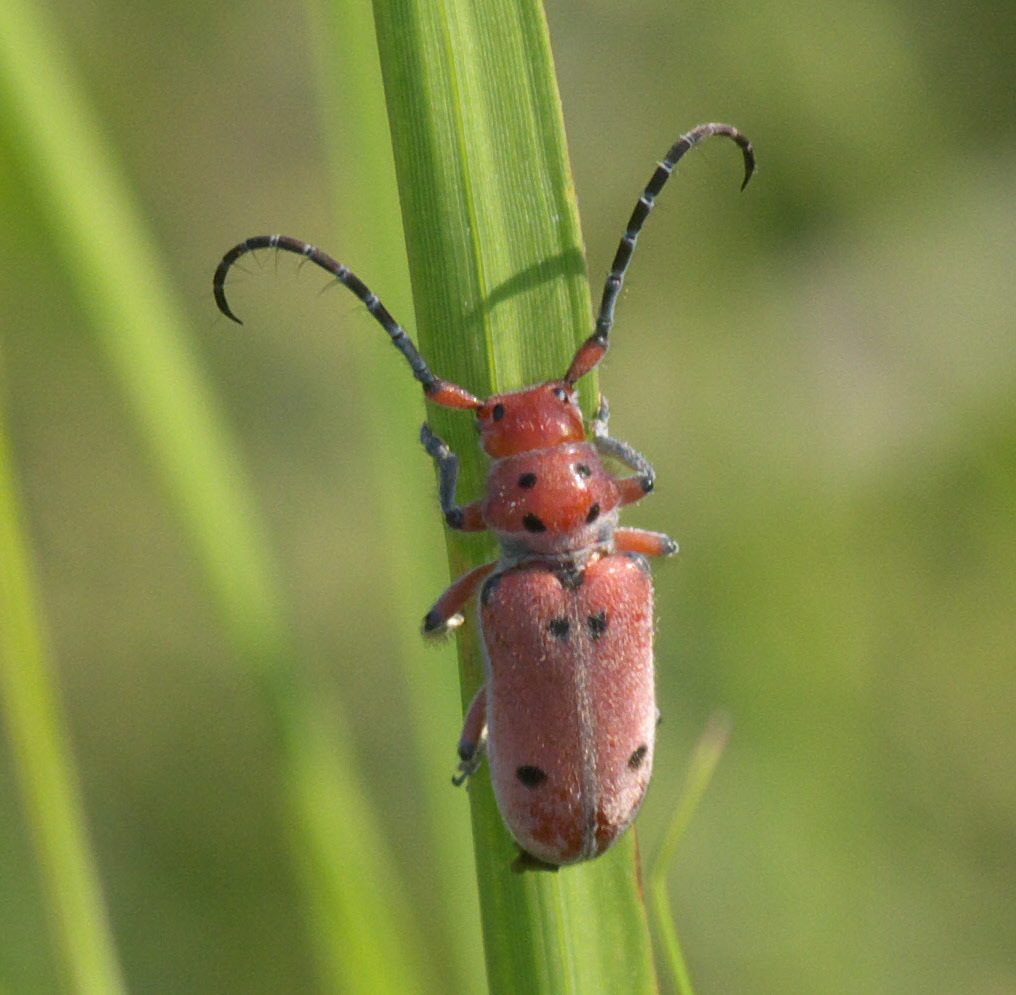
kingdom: Animalia
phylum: Arthropoda
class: Insecta
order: Coleoptera
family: Cerambycidae
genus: Tetraopes
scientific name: Tetraopes texanus
